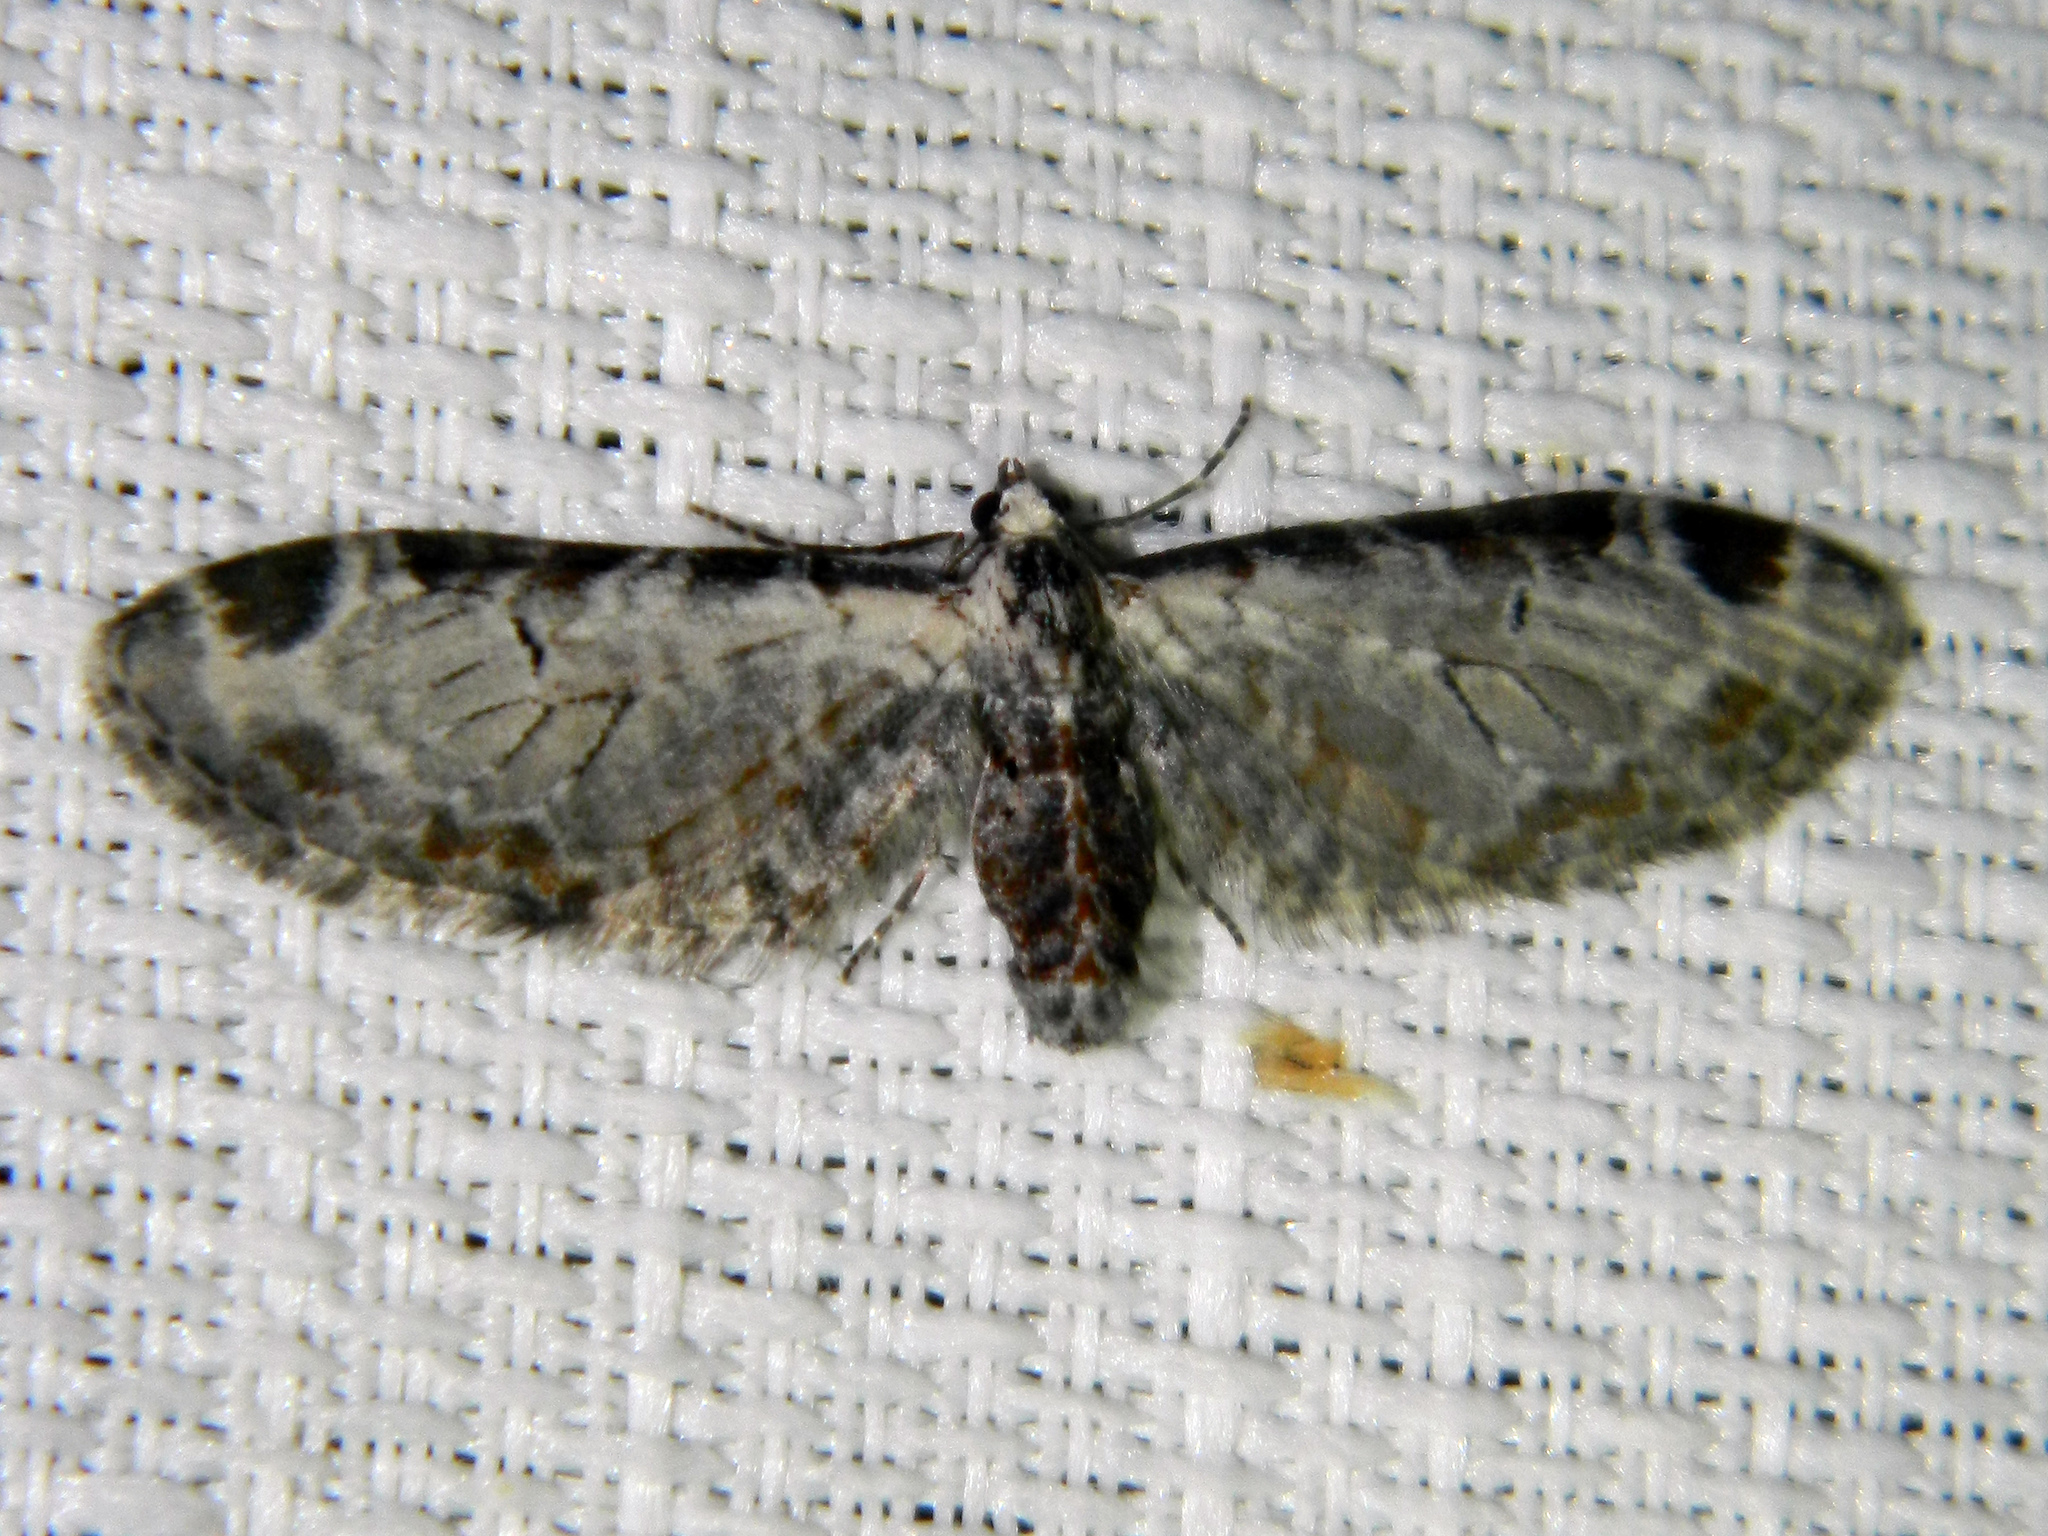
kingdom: Animalia
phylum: Arthropoda
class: Insecta
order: Lepidoptera
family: Geometridae
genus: Eupithecia
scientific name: Eupithecia ravocostaliata
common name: Great varigated pug
